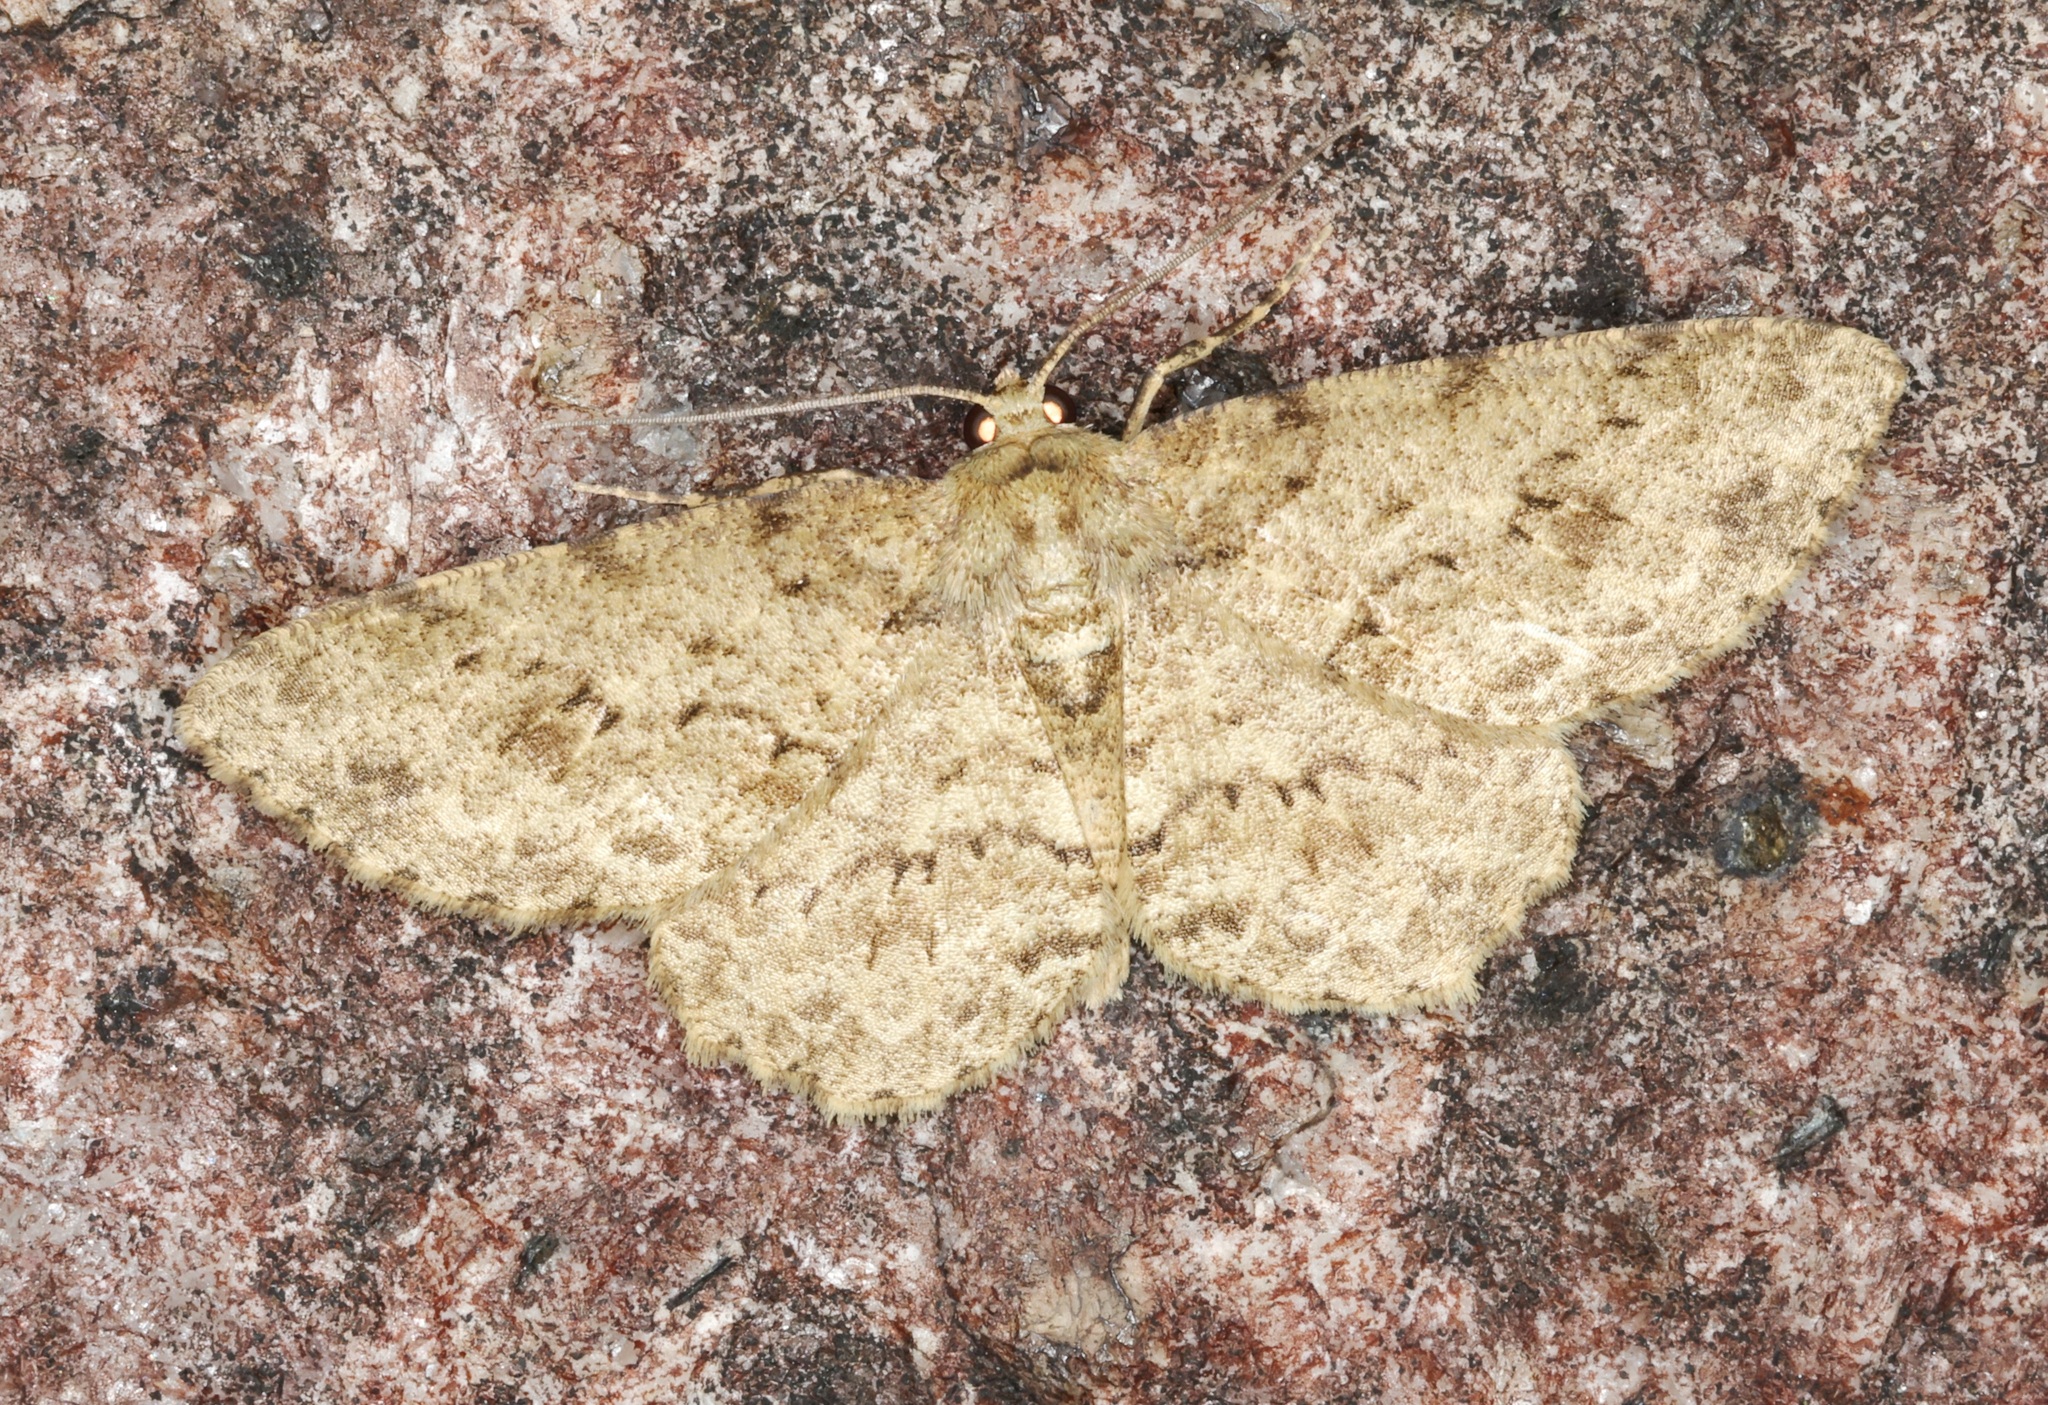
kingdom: Animalia
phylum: Arthropoda
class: Insecta
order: Lepidoptera
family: Geometridae
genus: Ectropis
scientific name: Ectropis bhurmitra
